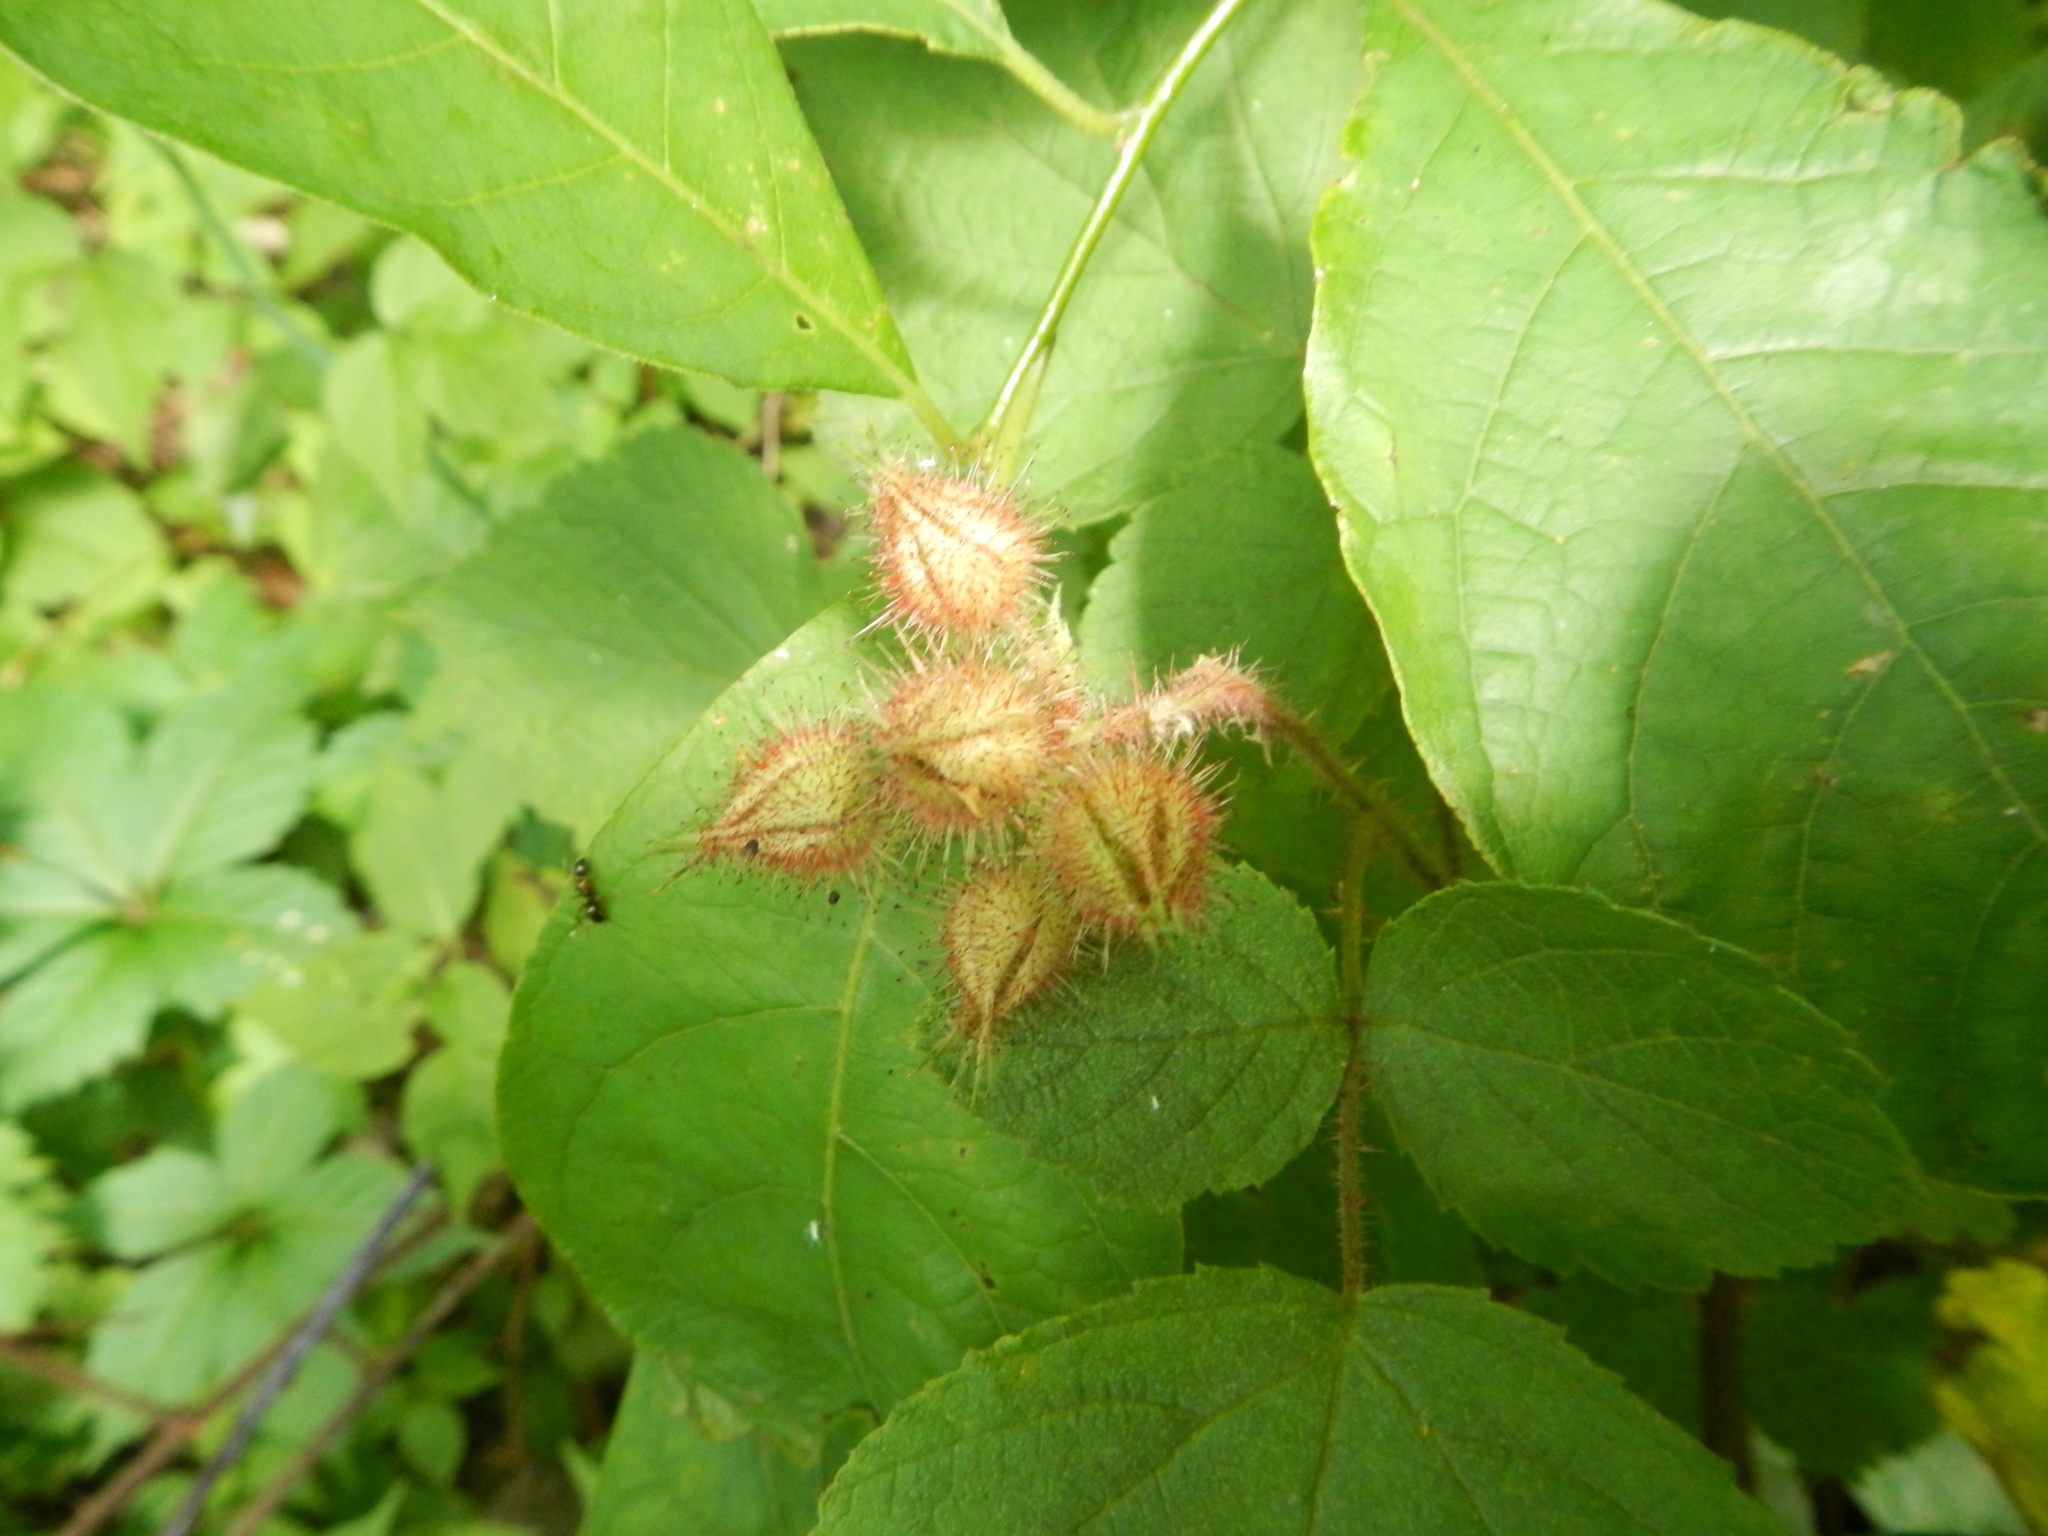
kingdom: Plantae
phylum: Tracheophyta
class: Magnoliopsida
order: Rosales
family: Rosaceae
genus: Rubus
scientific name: Rubus phoenicolasius
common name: Japanese wineberry
